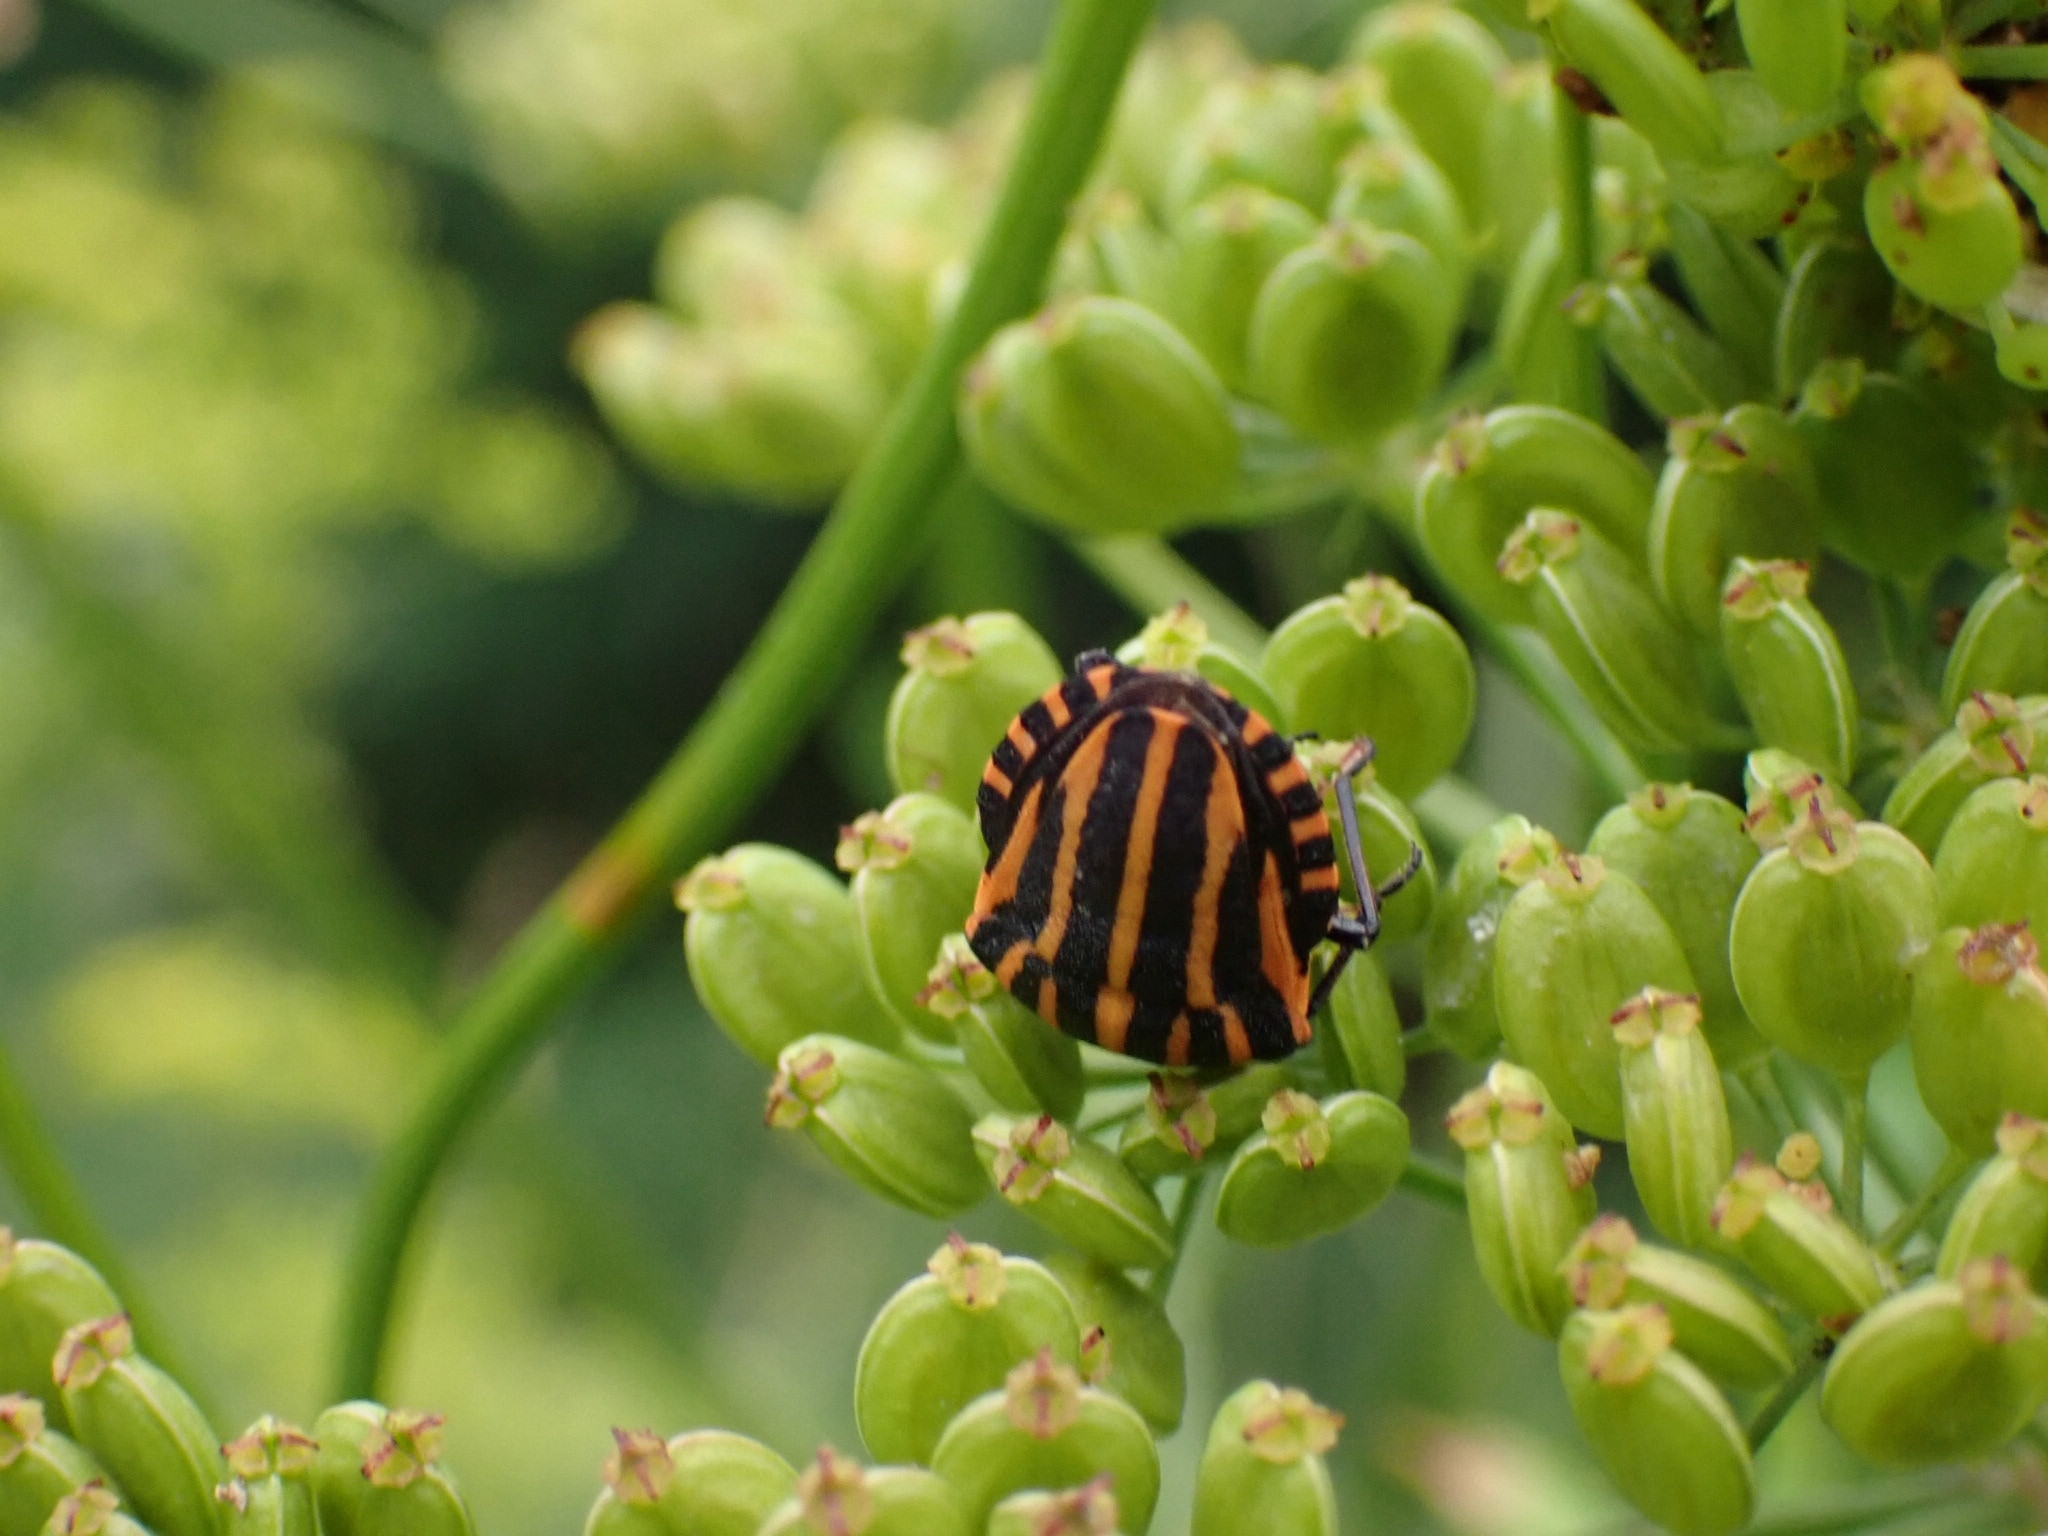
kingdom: Animalia
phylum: Arthropoda
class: Insecta
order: Hemiptera
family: Pentatomidae
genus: Graphosoma
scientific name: Graphosoma italicum
